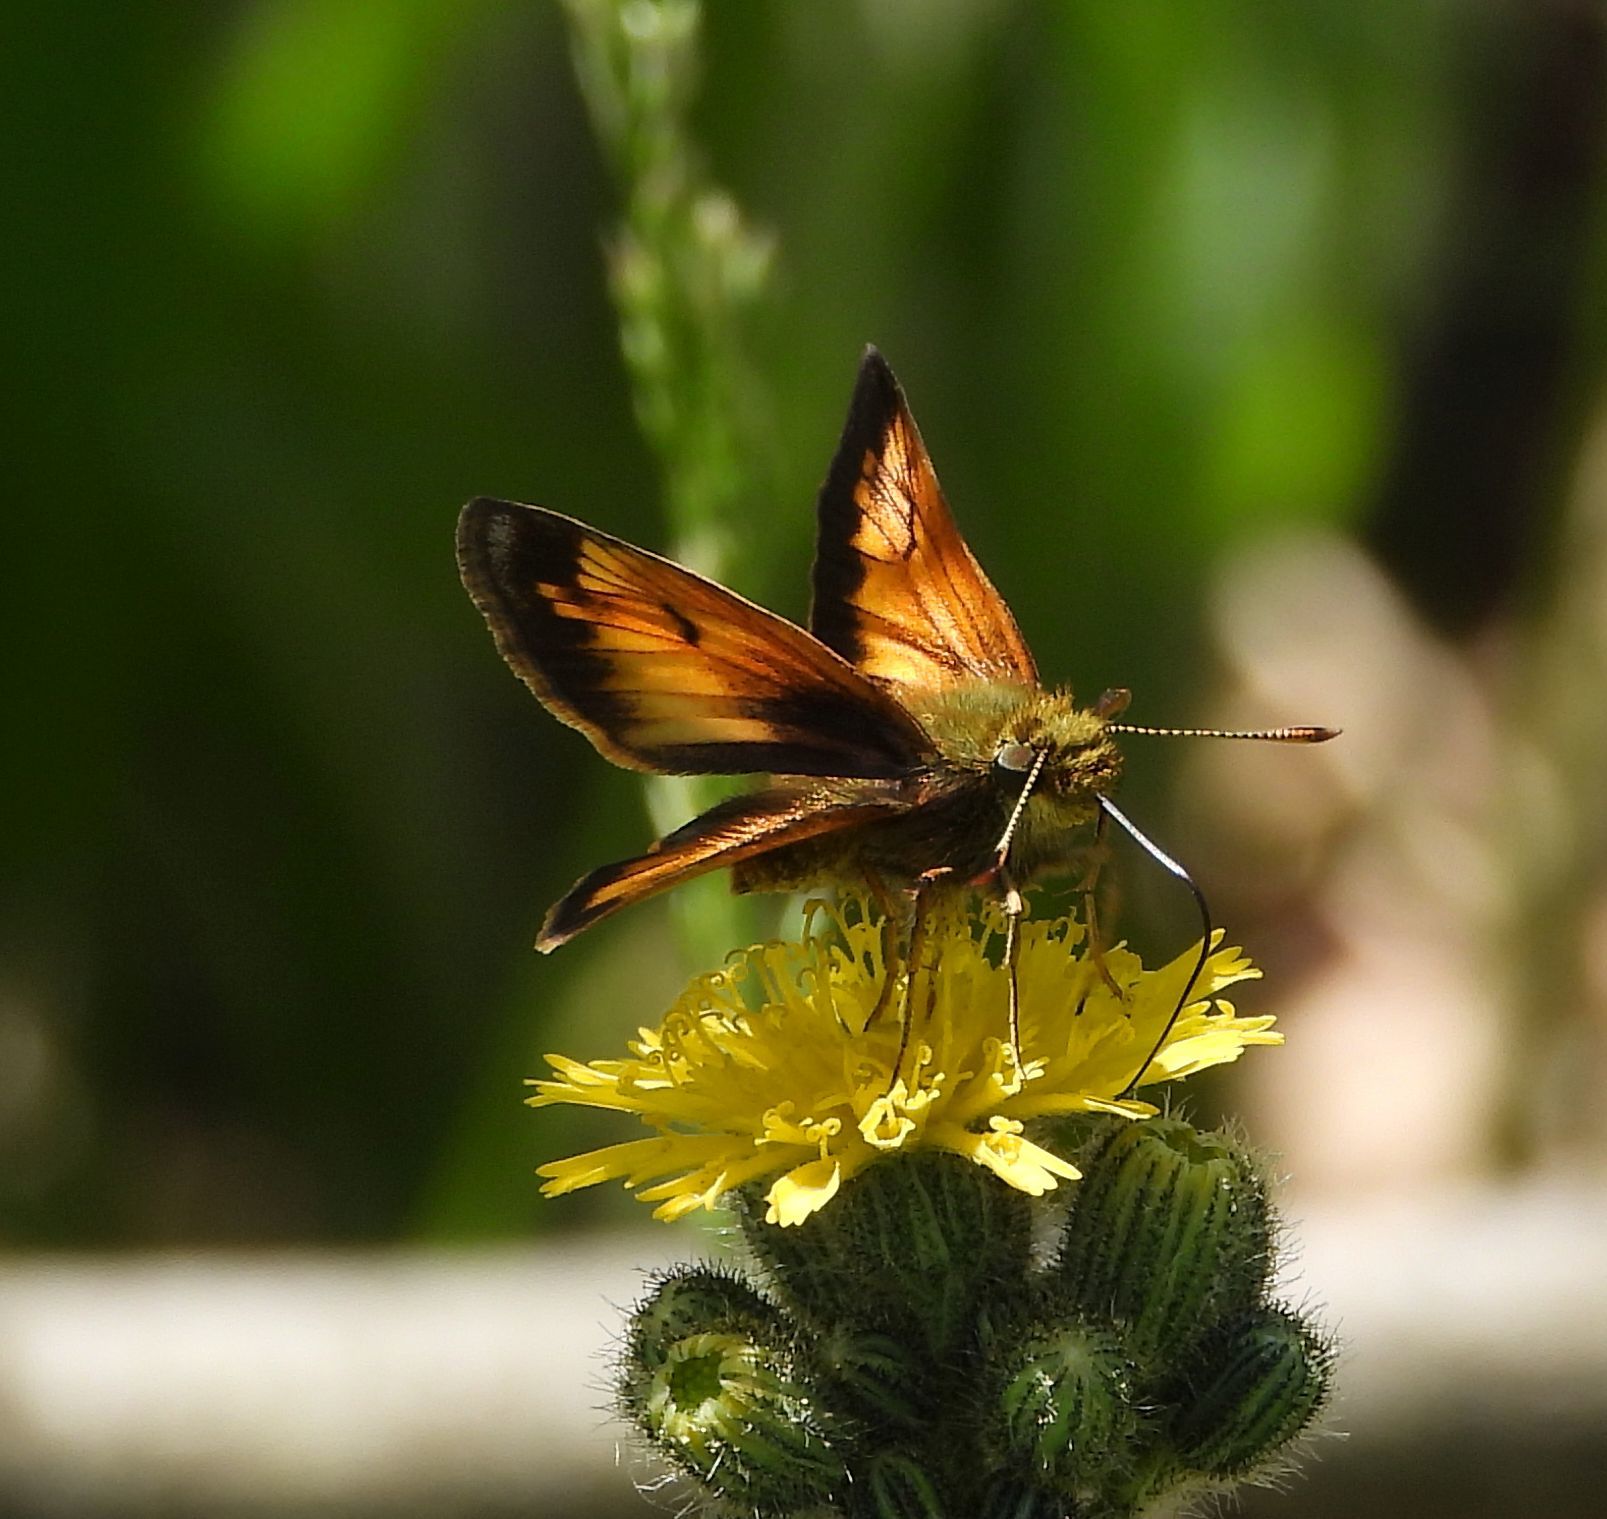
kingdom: Animalia
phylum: Arthropoda
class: Insecta
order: Lepidoptera
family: Hesperiidae
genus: Lon
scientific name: Lon hobomok
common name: Hobomok skipper
